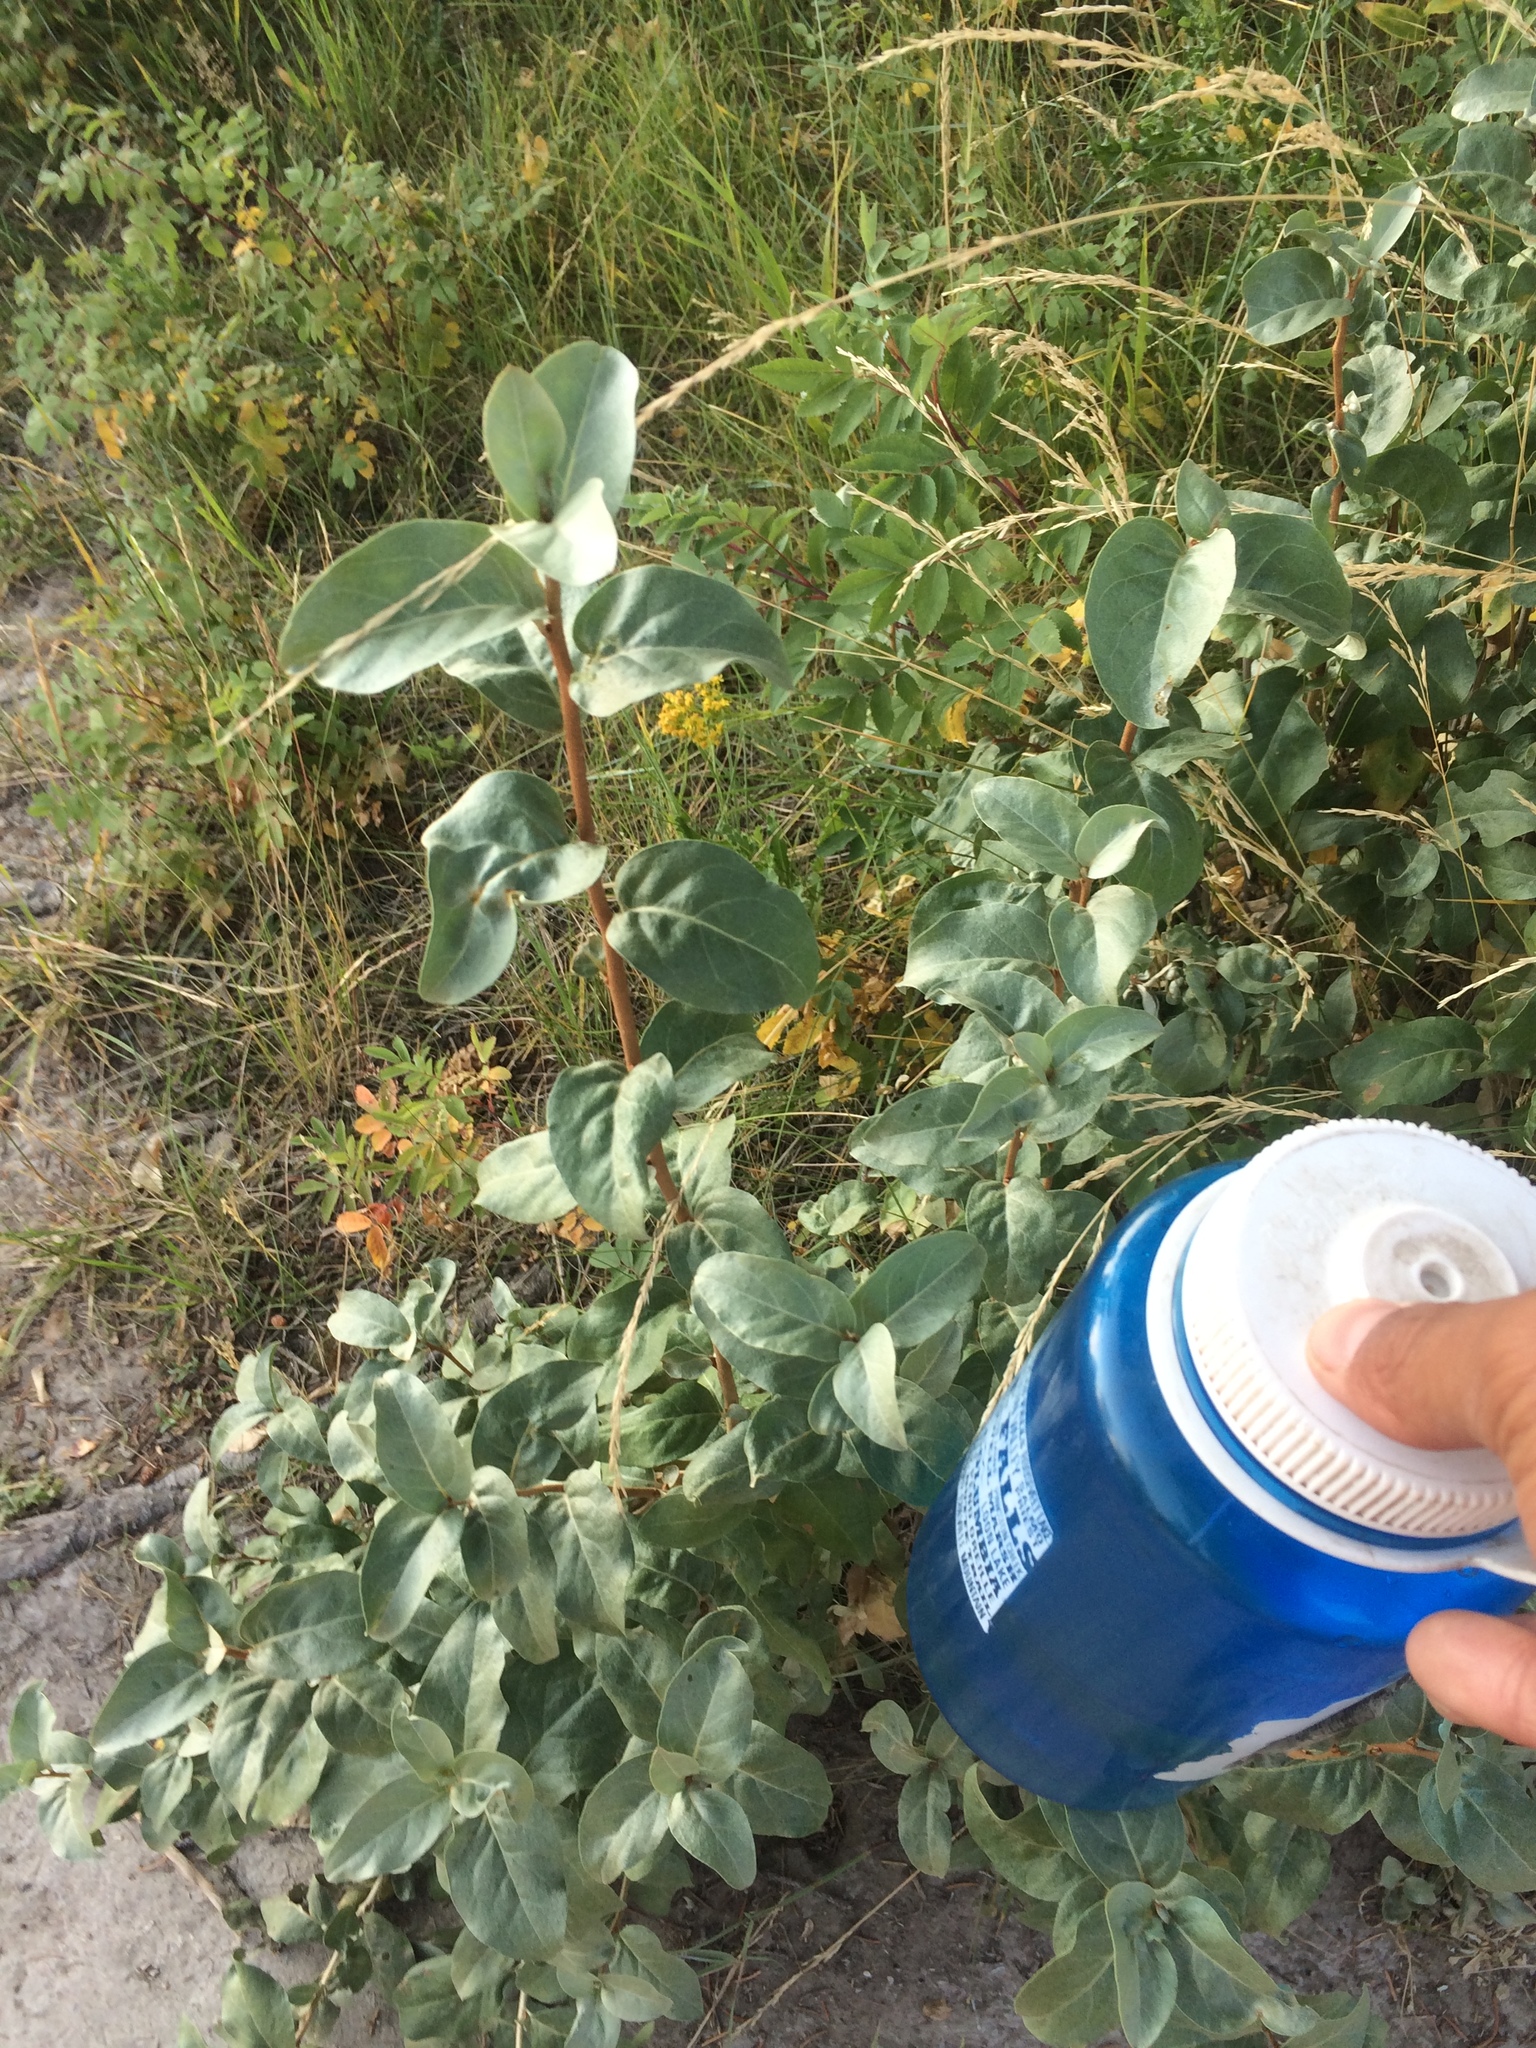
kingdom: Plantae
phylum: Tracheophyta
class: Magnoliopsida
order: Rosales
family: Elaeagnaceae
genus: Elaeagnus
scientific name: Elaeagnus commutata
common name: Silverberry
